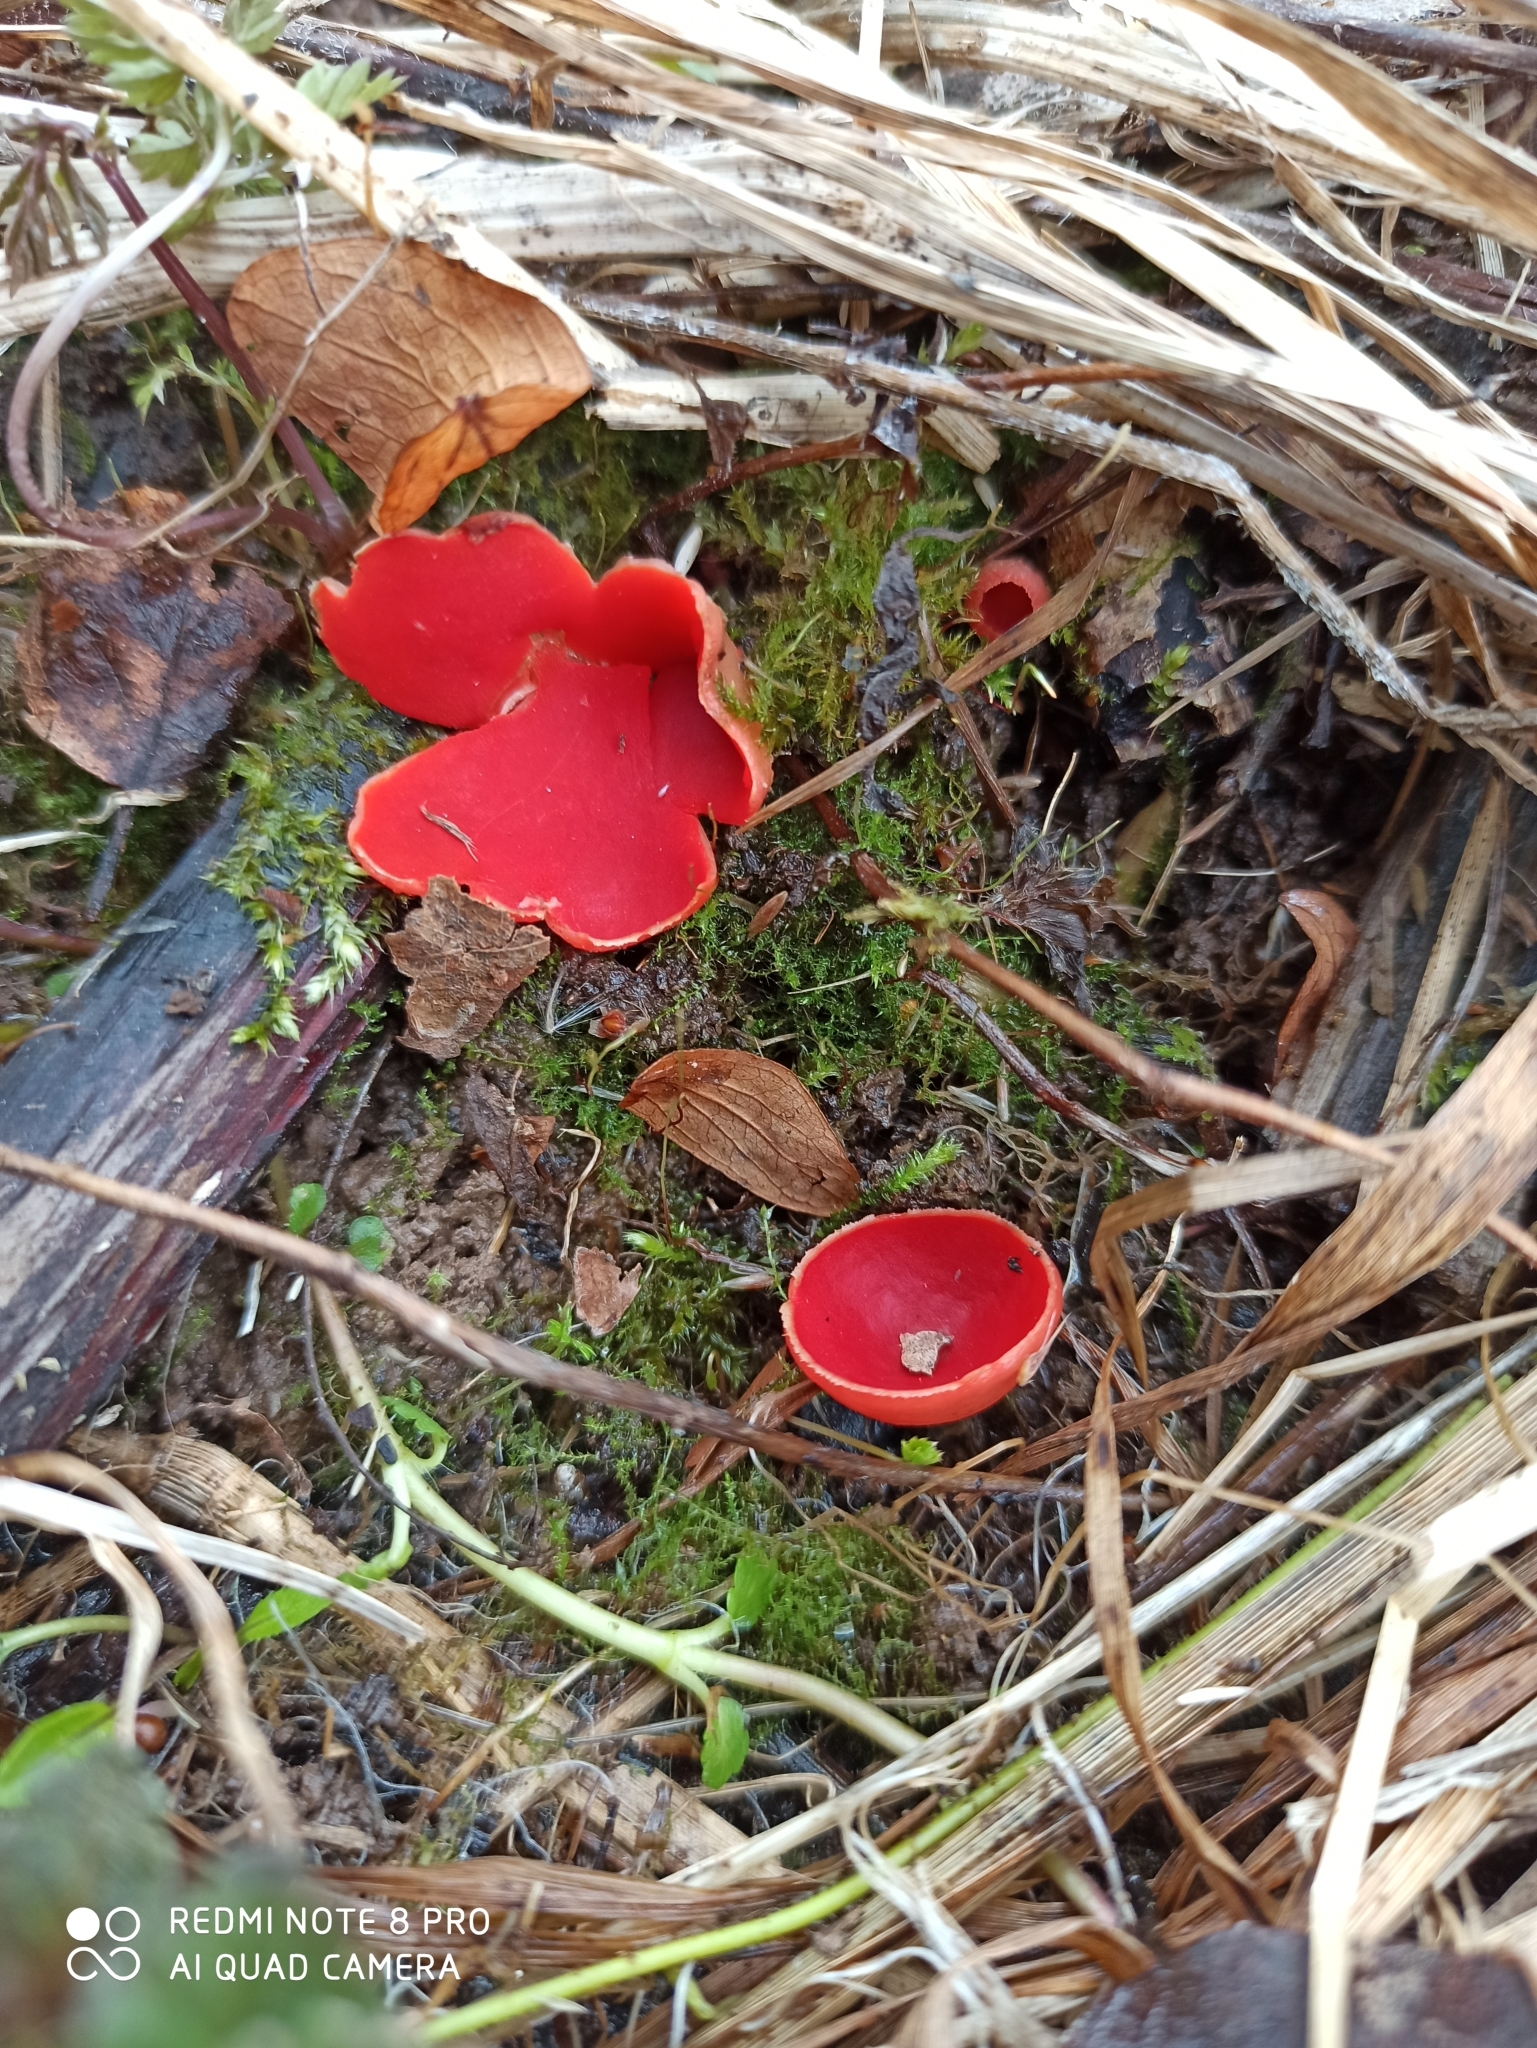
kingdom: Fungi
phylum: Ascomycota
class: Pezizomycetes
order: Pezizales
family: Sarcoscyphaceae
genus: Sarcoscypha
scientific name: Sarcoscypha austriaca
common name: Scarlet elfcup
